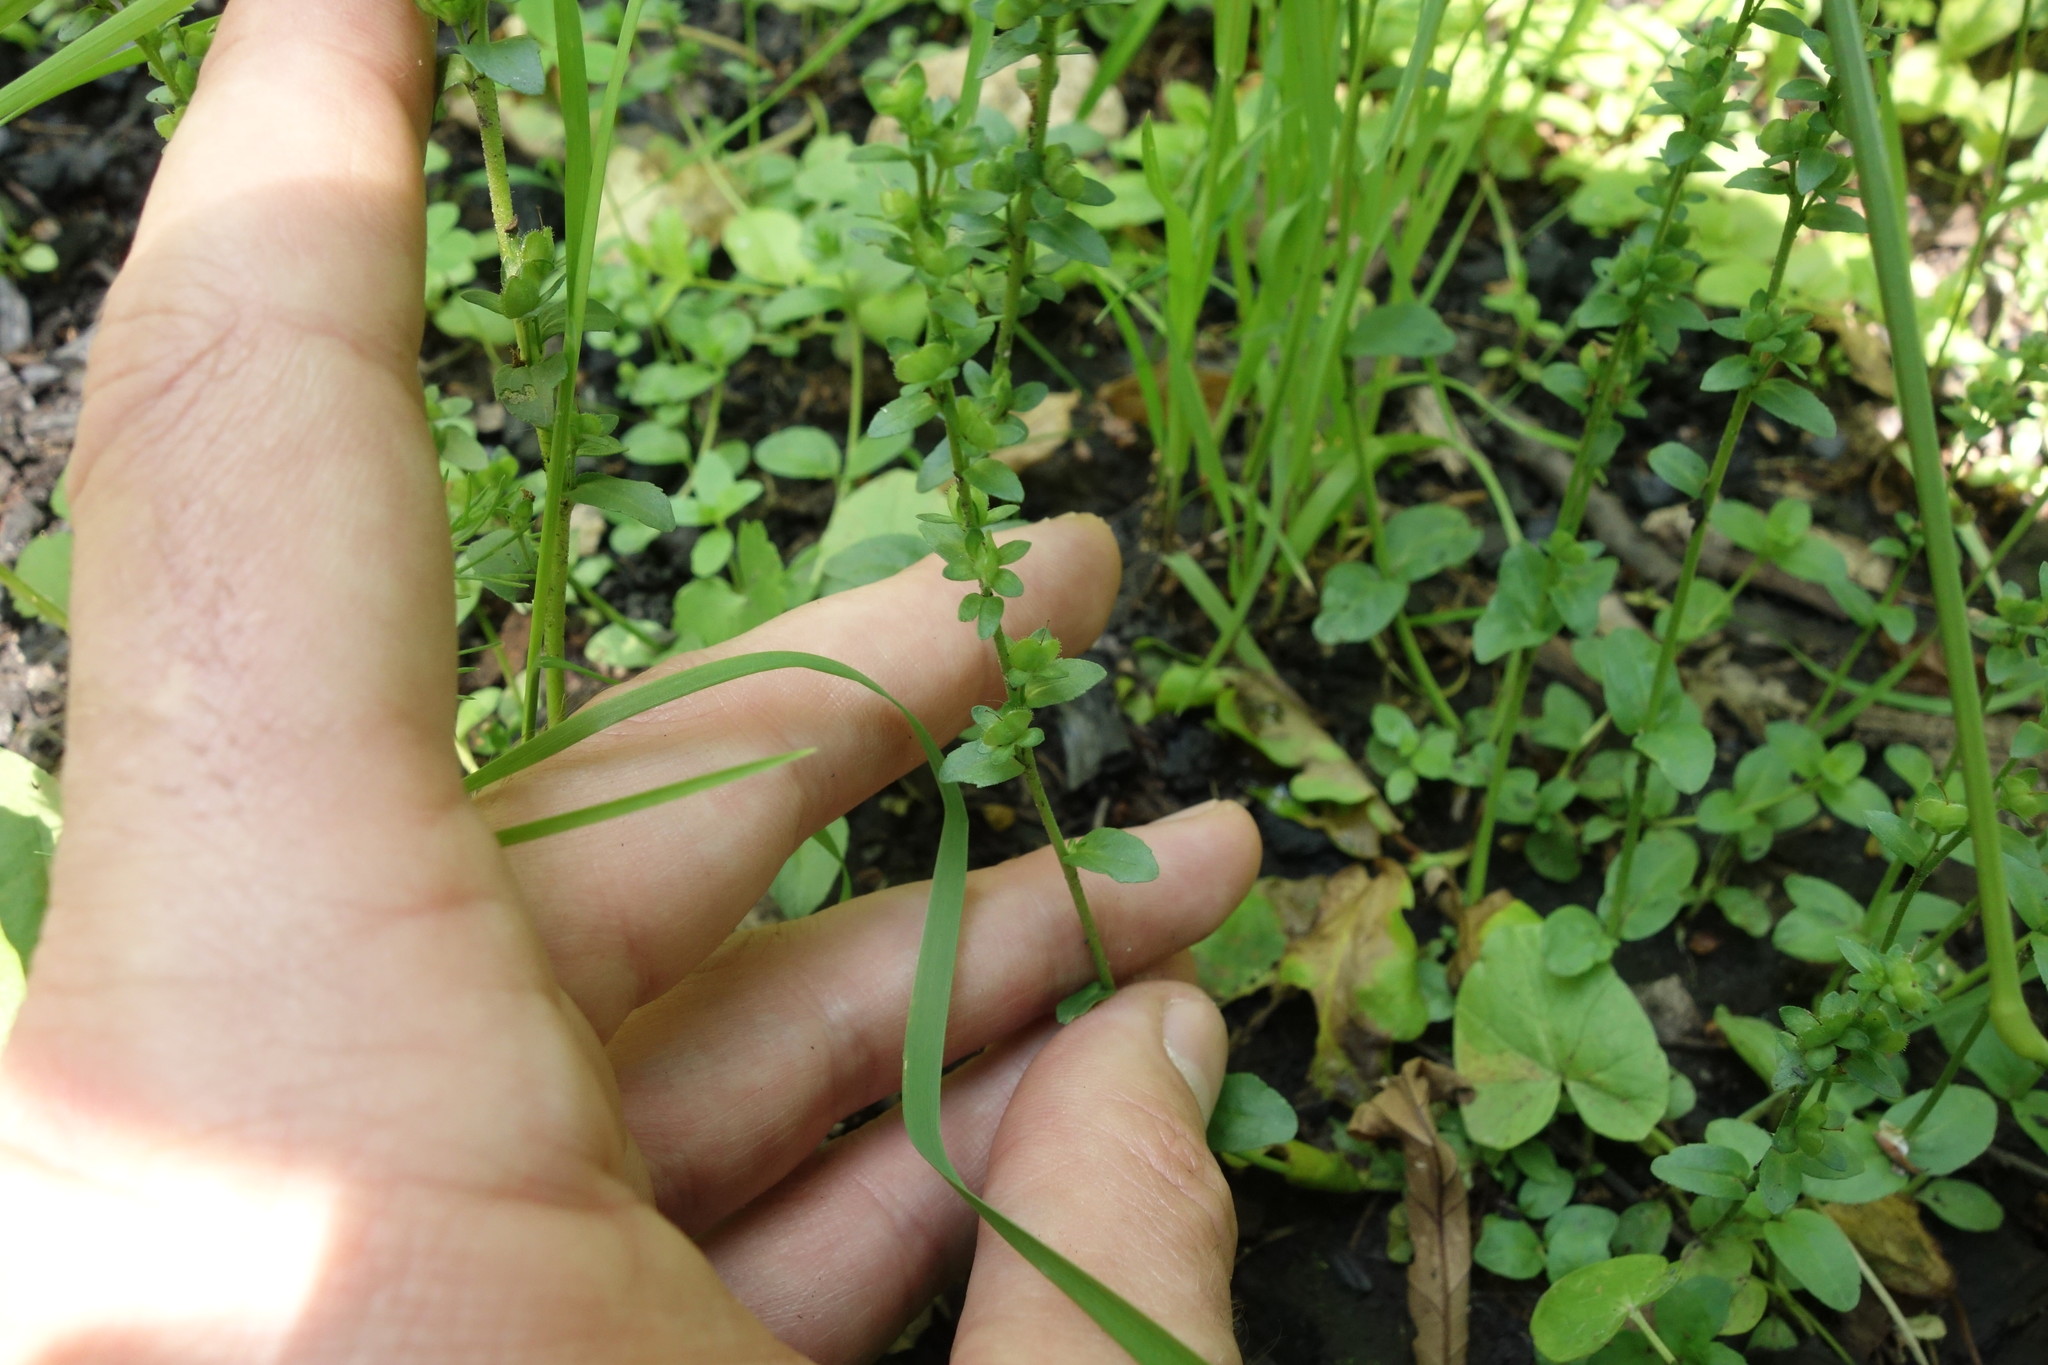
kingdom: Plantae
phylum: Tracheophyta
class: Magnoliopsida
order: Lamiales
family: Plantaginaceae
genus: Veronica
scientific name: Veronica serpyllifolia
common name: Thyme-leaved speedwell
